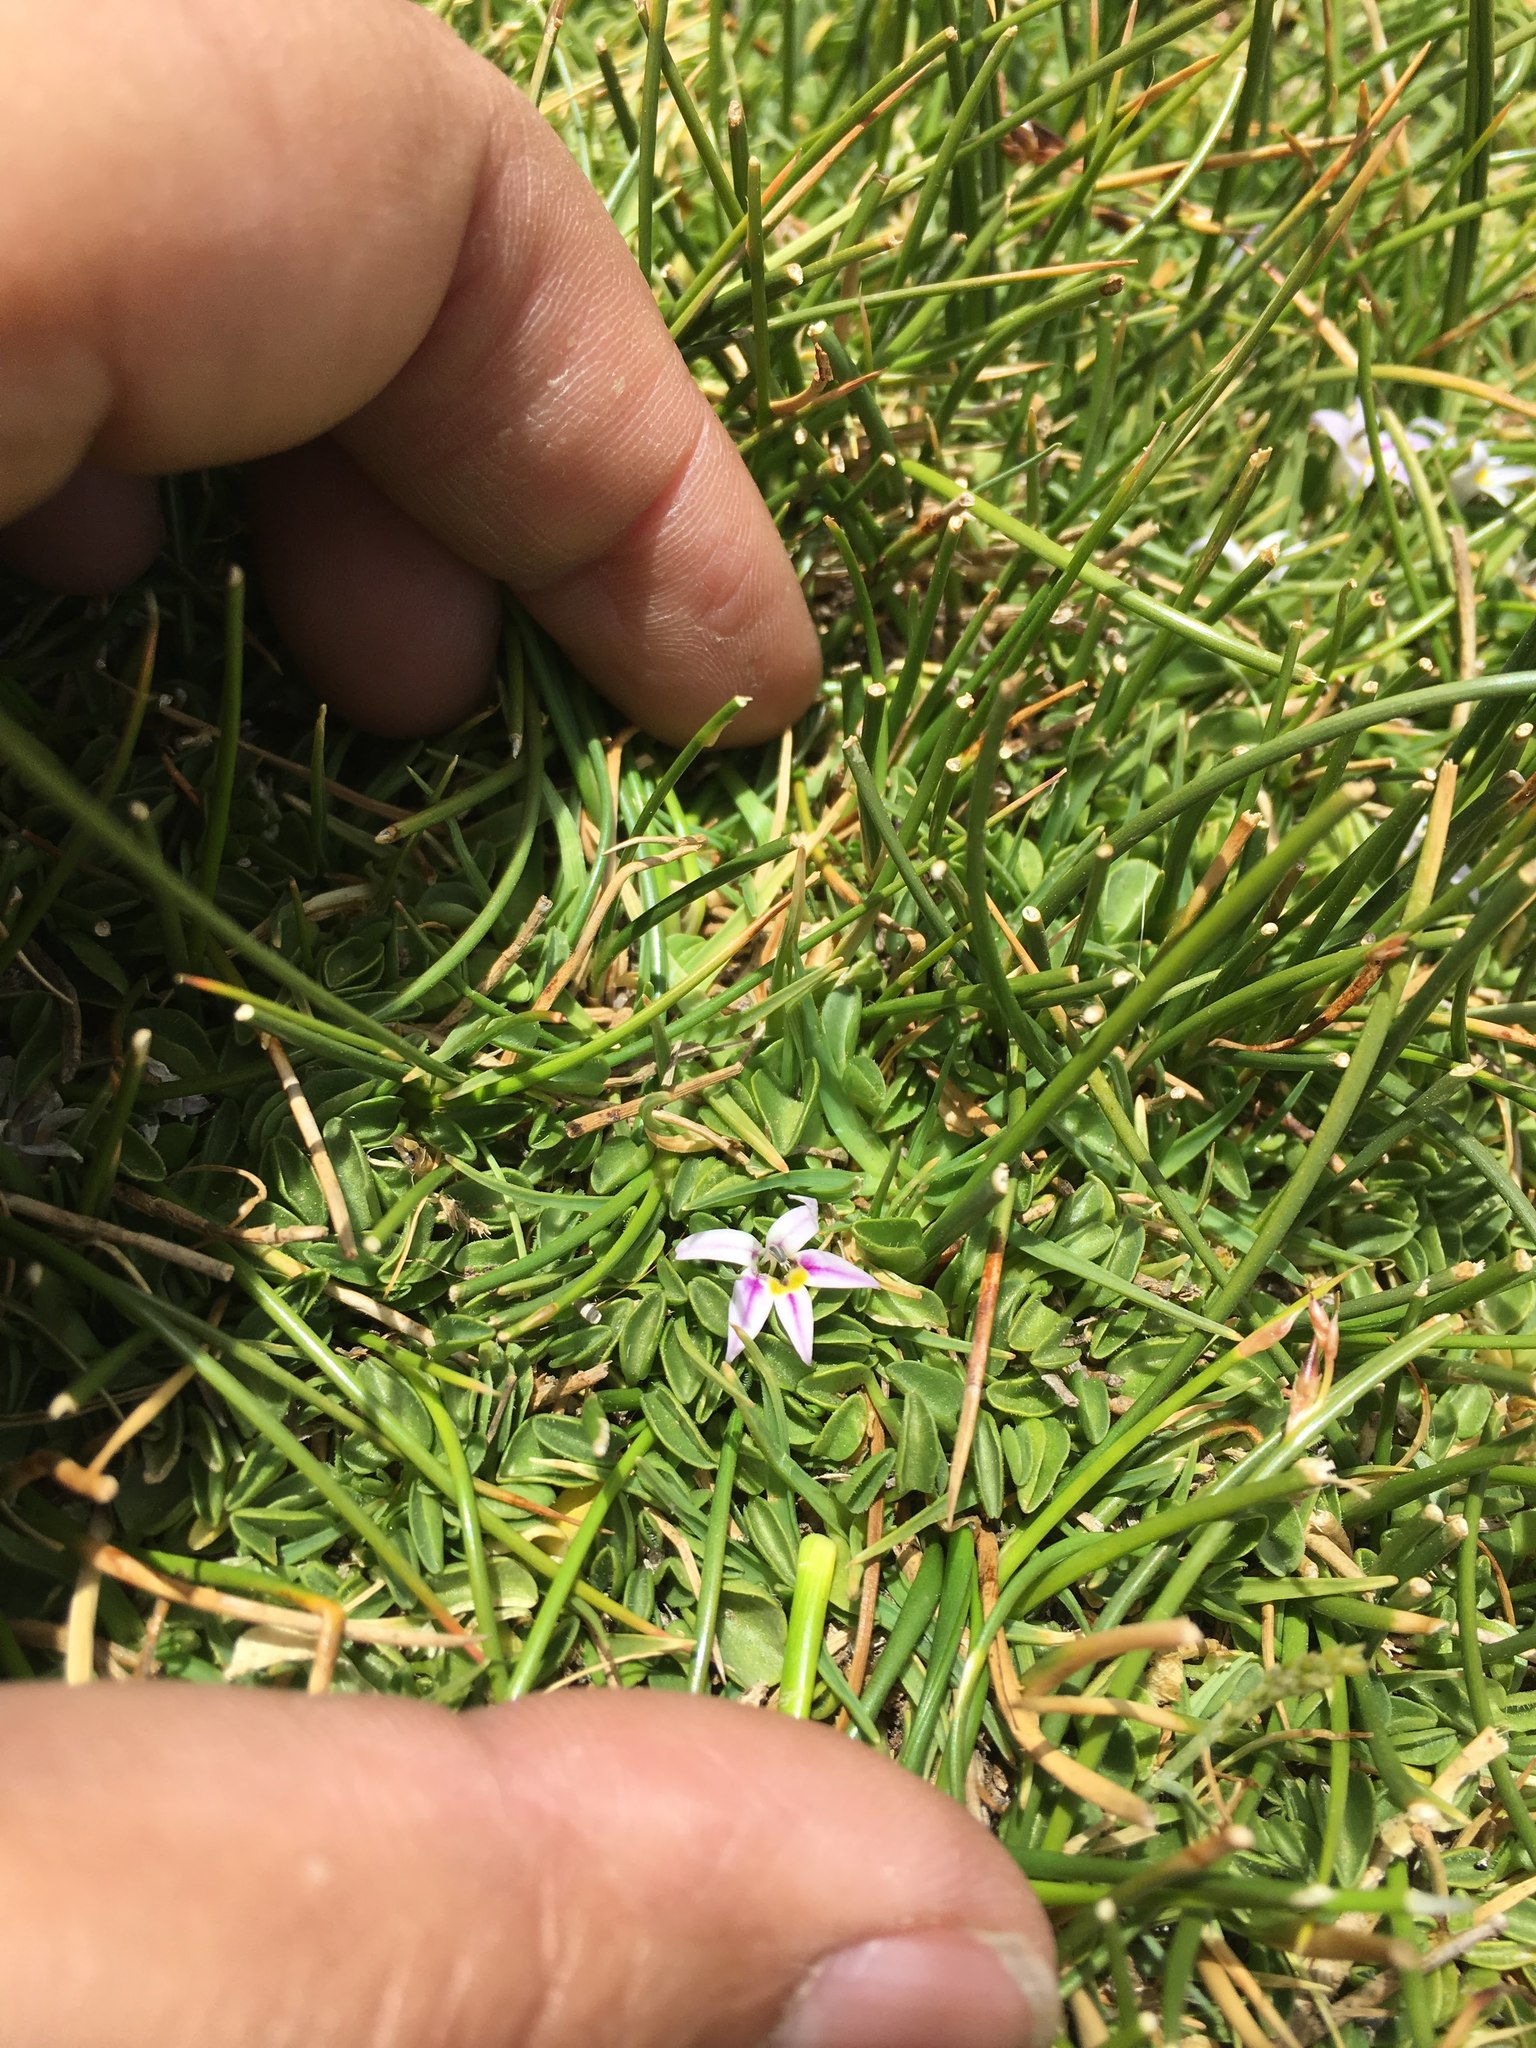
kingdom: Plantae
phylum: Tracheophyta
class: Magnoliopsida
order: Asterales
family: Campanulaceae
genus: Lobelia
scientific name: Lobelia oligophylla
